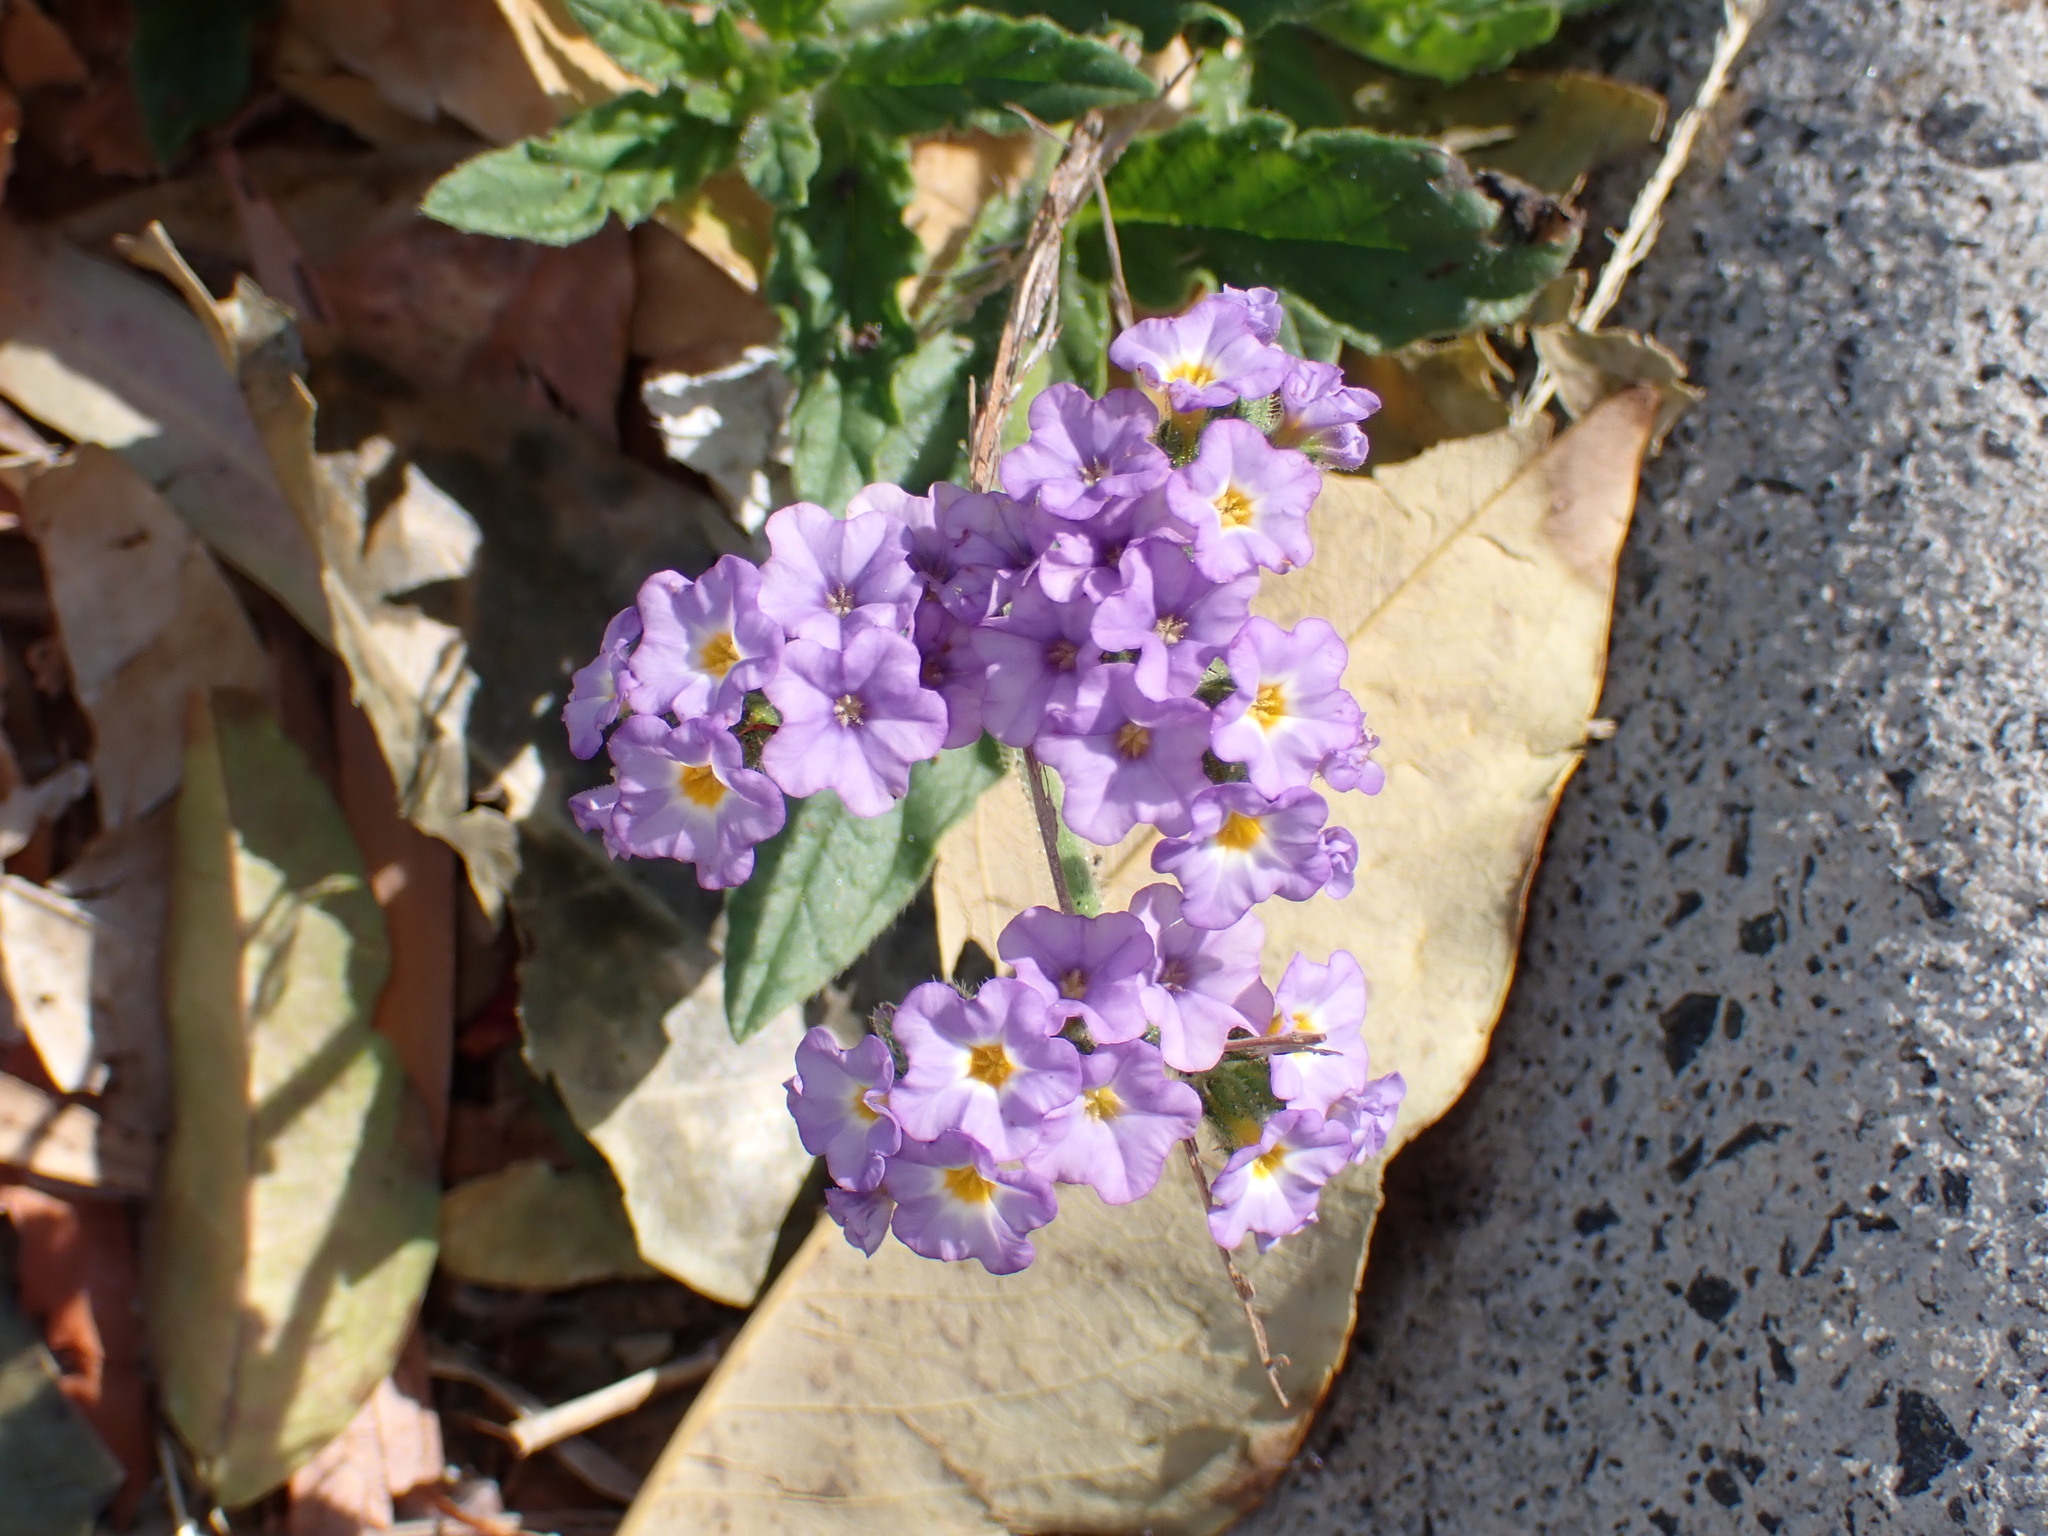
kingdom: Plantae
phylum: Tracheophyta
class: Magnoliopsida
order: Boraginales
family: Heliotropiaceae
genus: Heliotropium
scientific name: Heliotropium amplexicaule
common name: Clasping heliotrope
